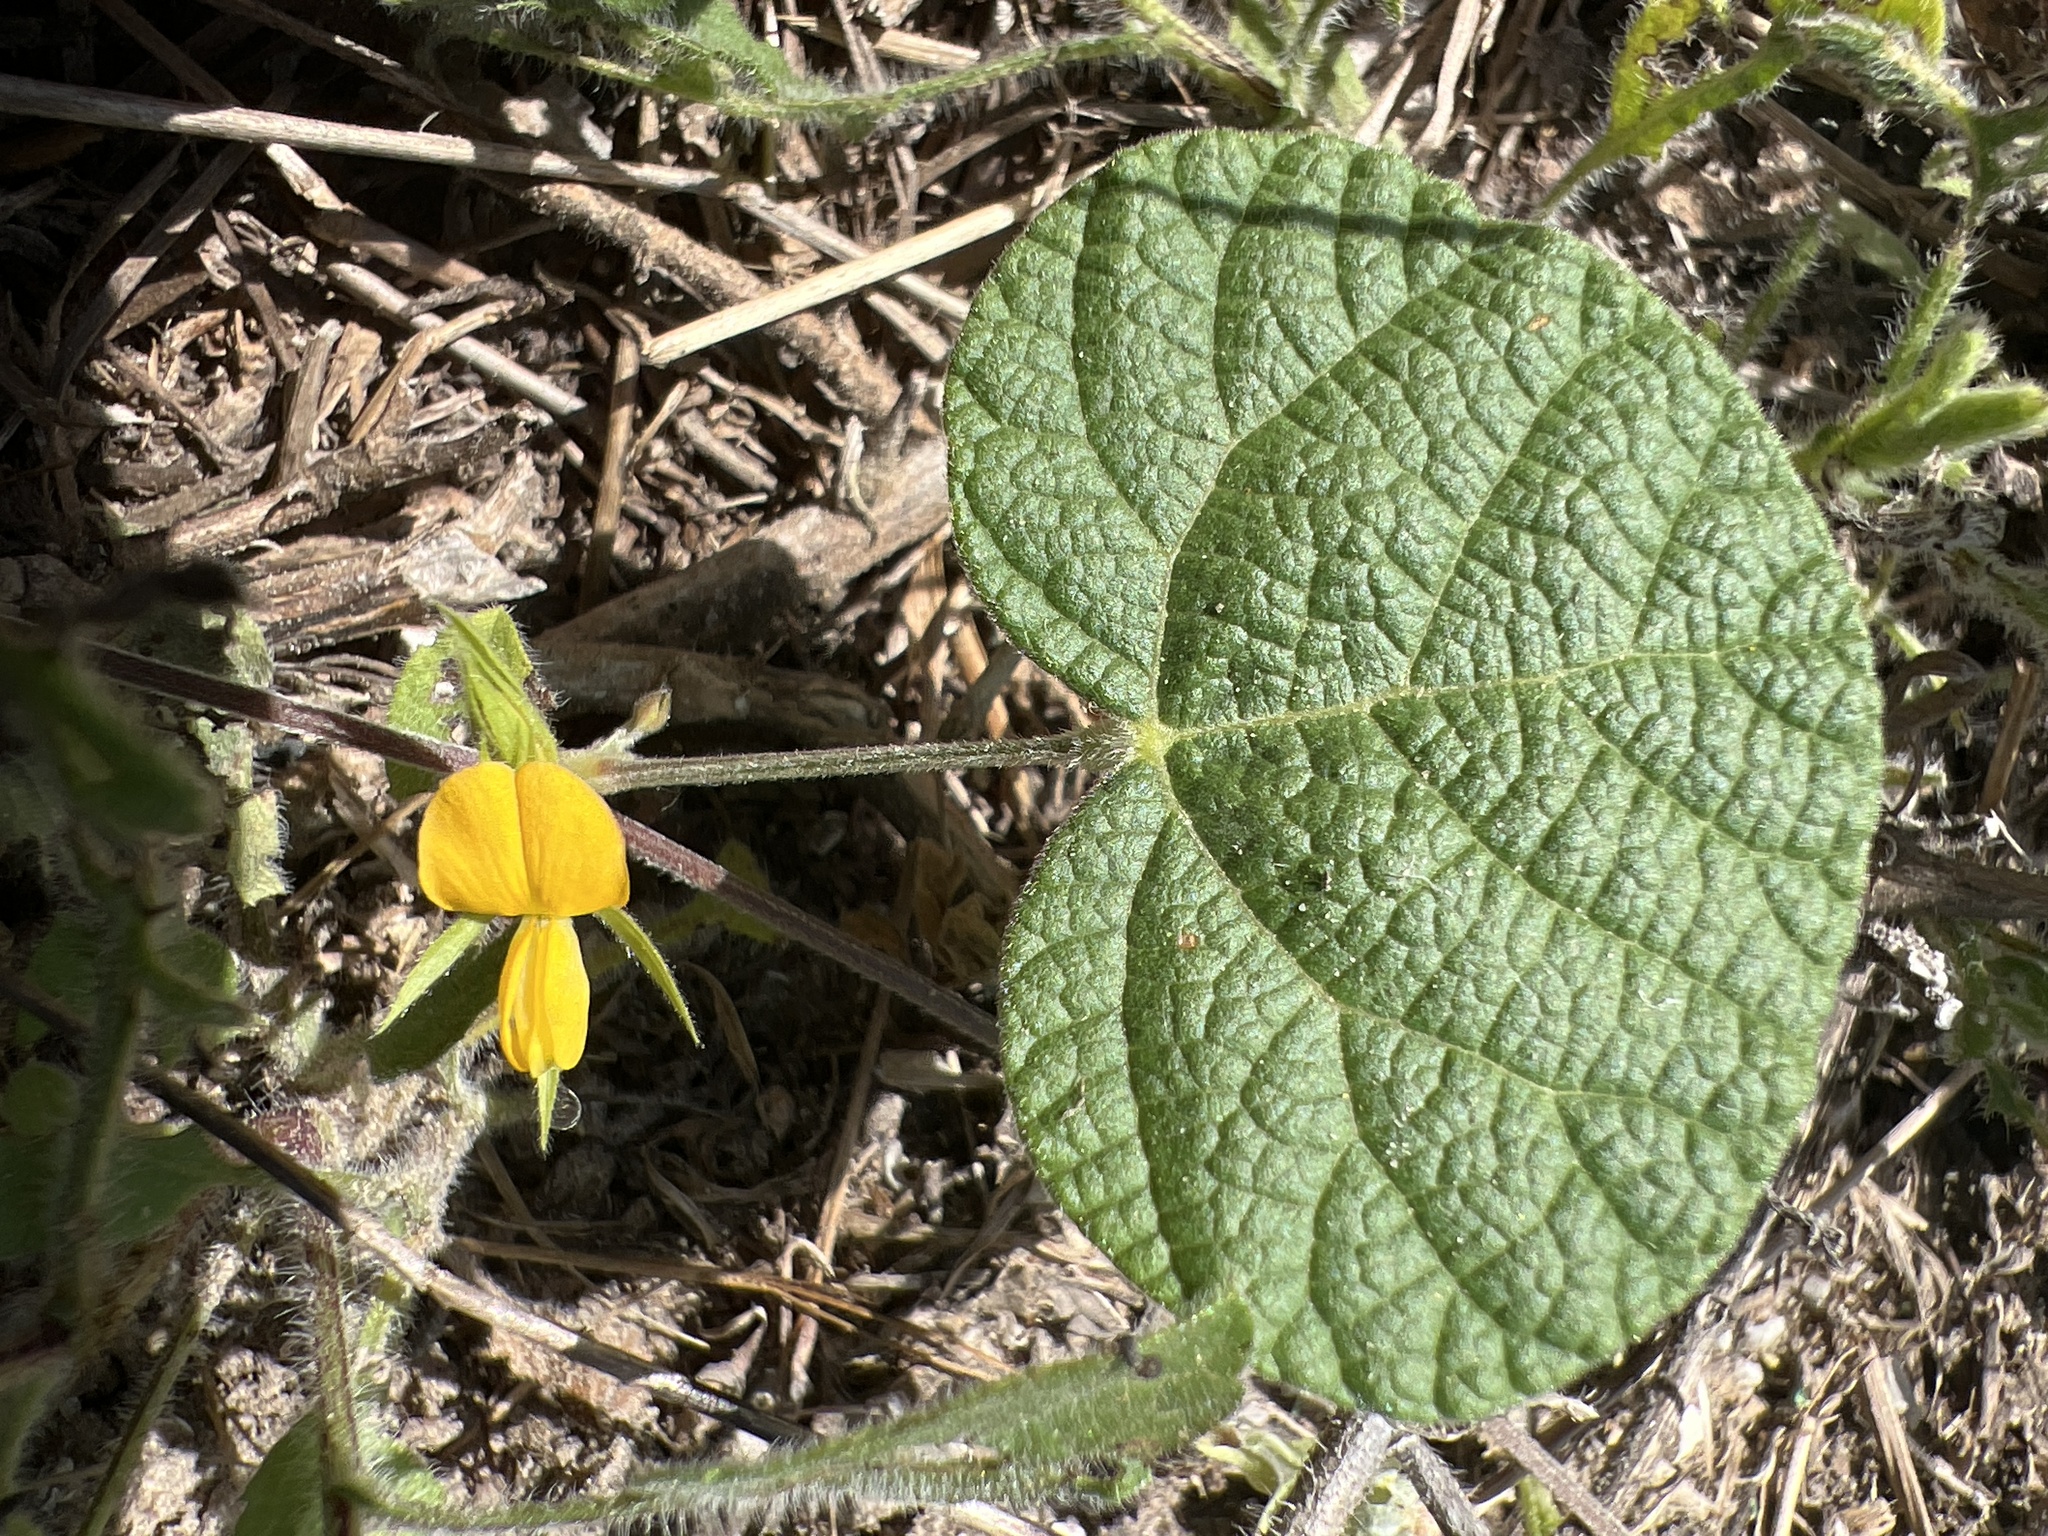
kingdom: Plantae
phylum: Tracheophyta
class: Magnoliopsida
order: Fabales
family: Fabaceae
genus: Rhynchosia
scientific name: Rhynchosia americana
